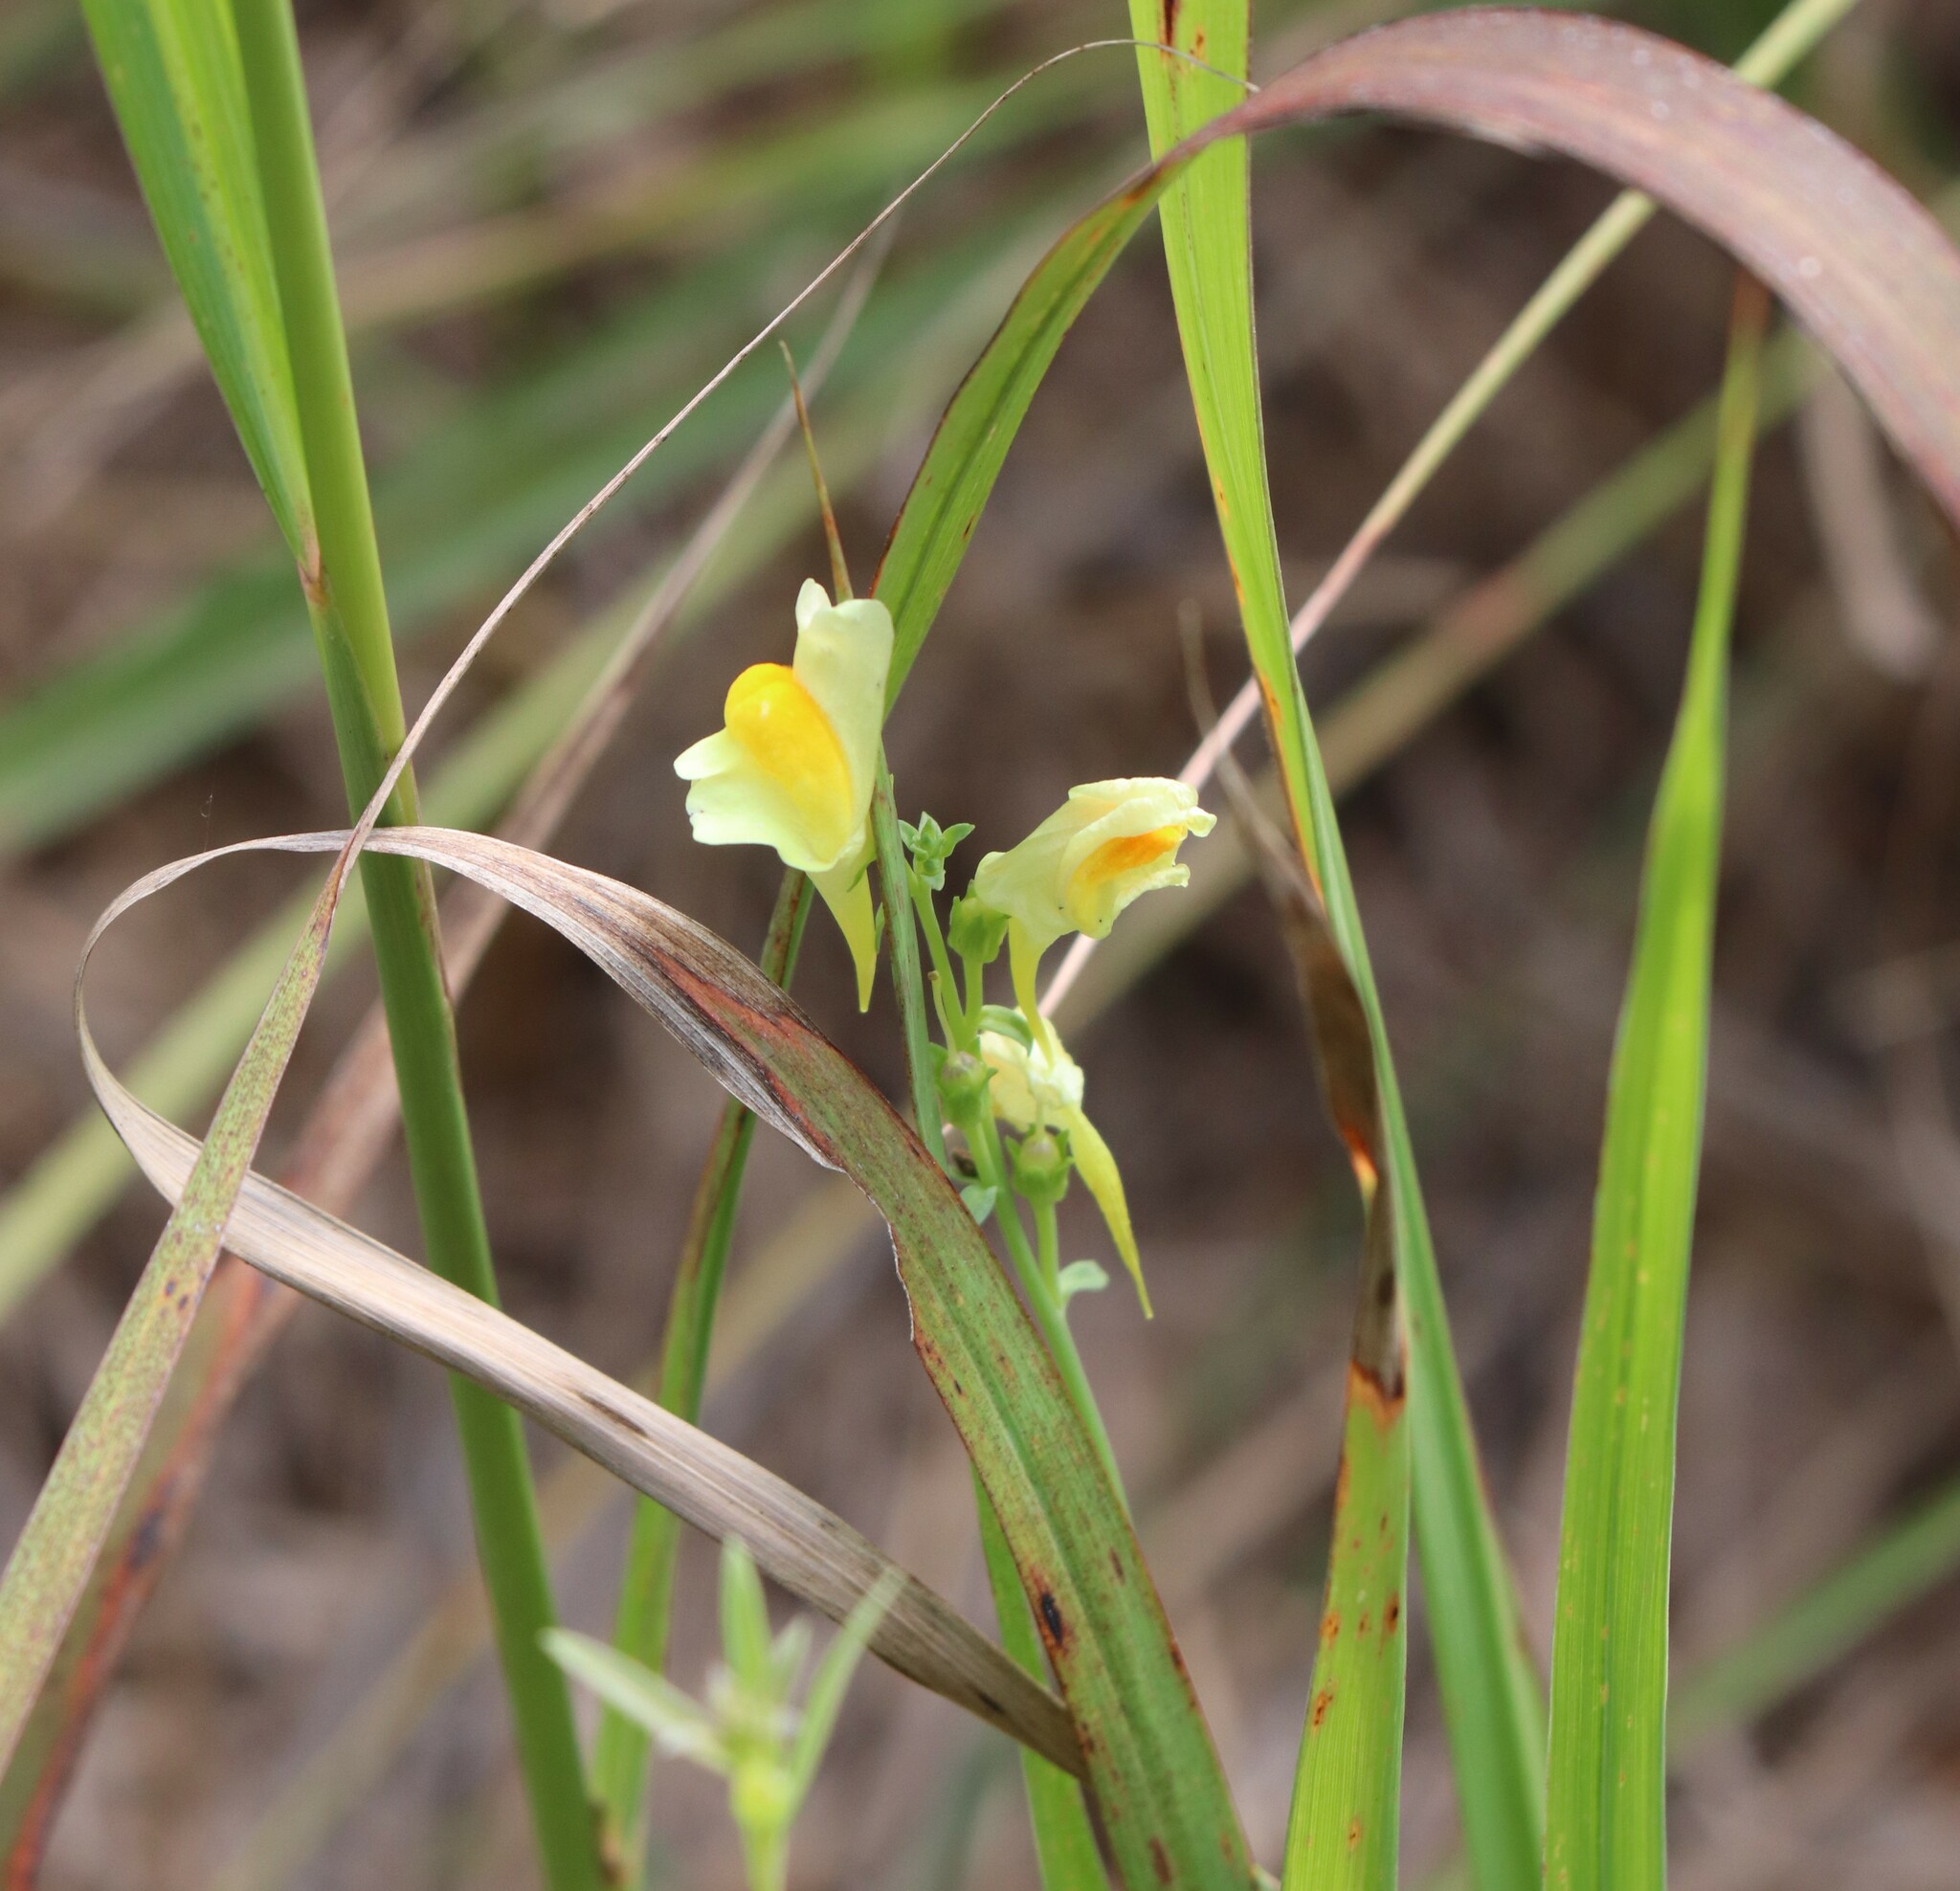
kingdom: Plantae
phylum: Tracheophyta
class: Magnoliopsida
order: Lamiales
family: Plantaginaceae
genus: Linaria
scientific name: Linaria vulgaris
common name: Butter and eggs
